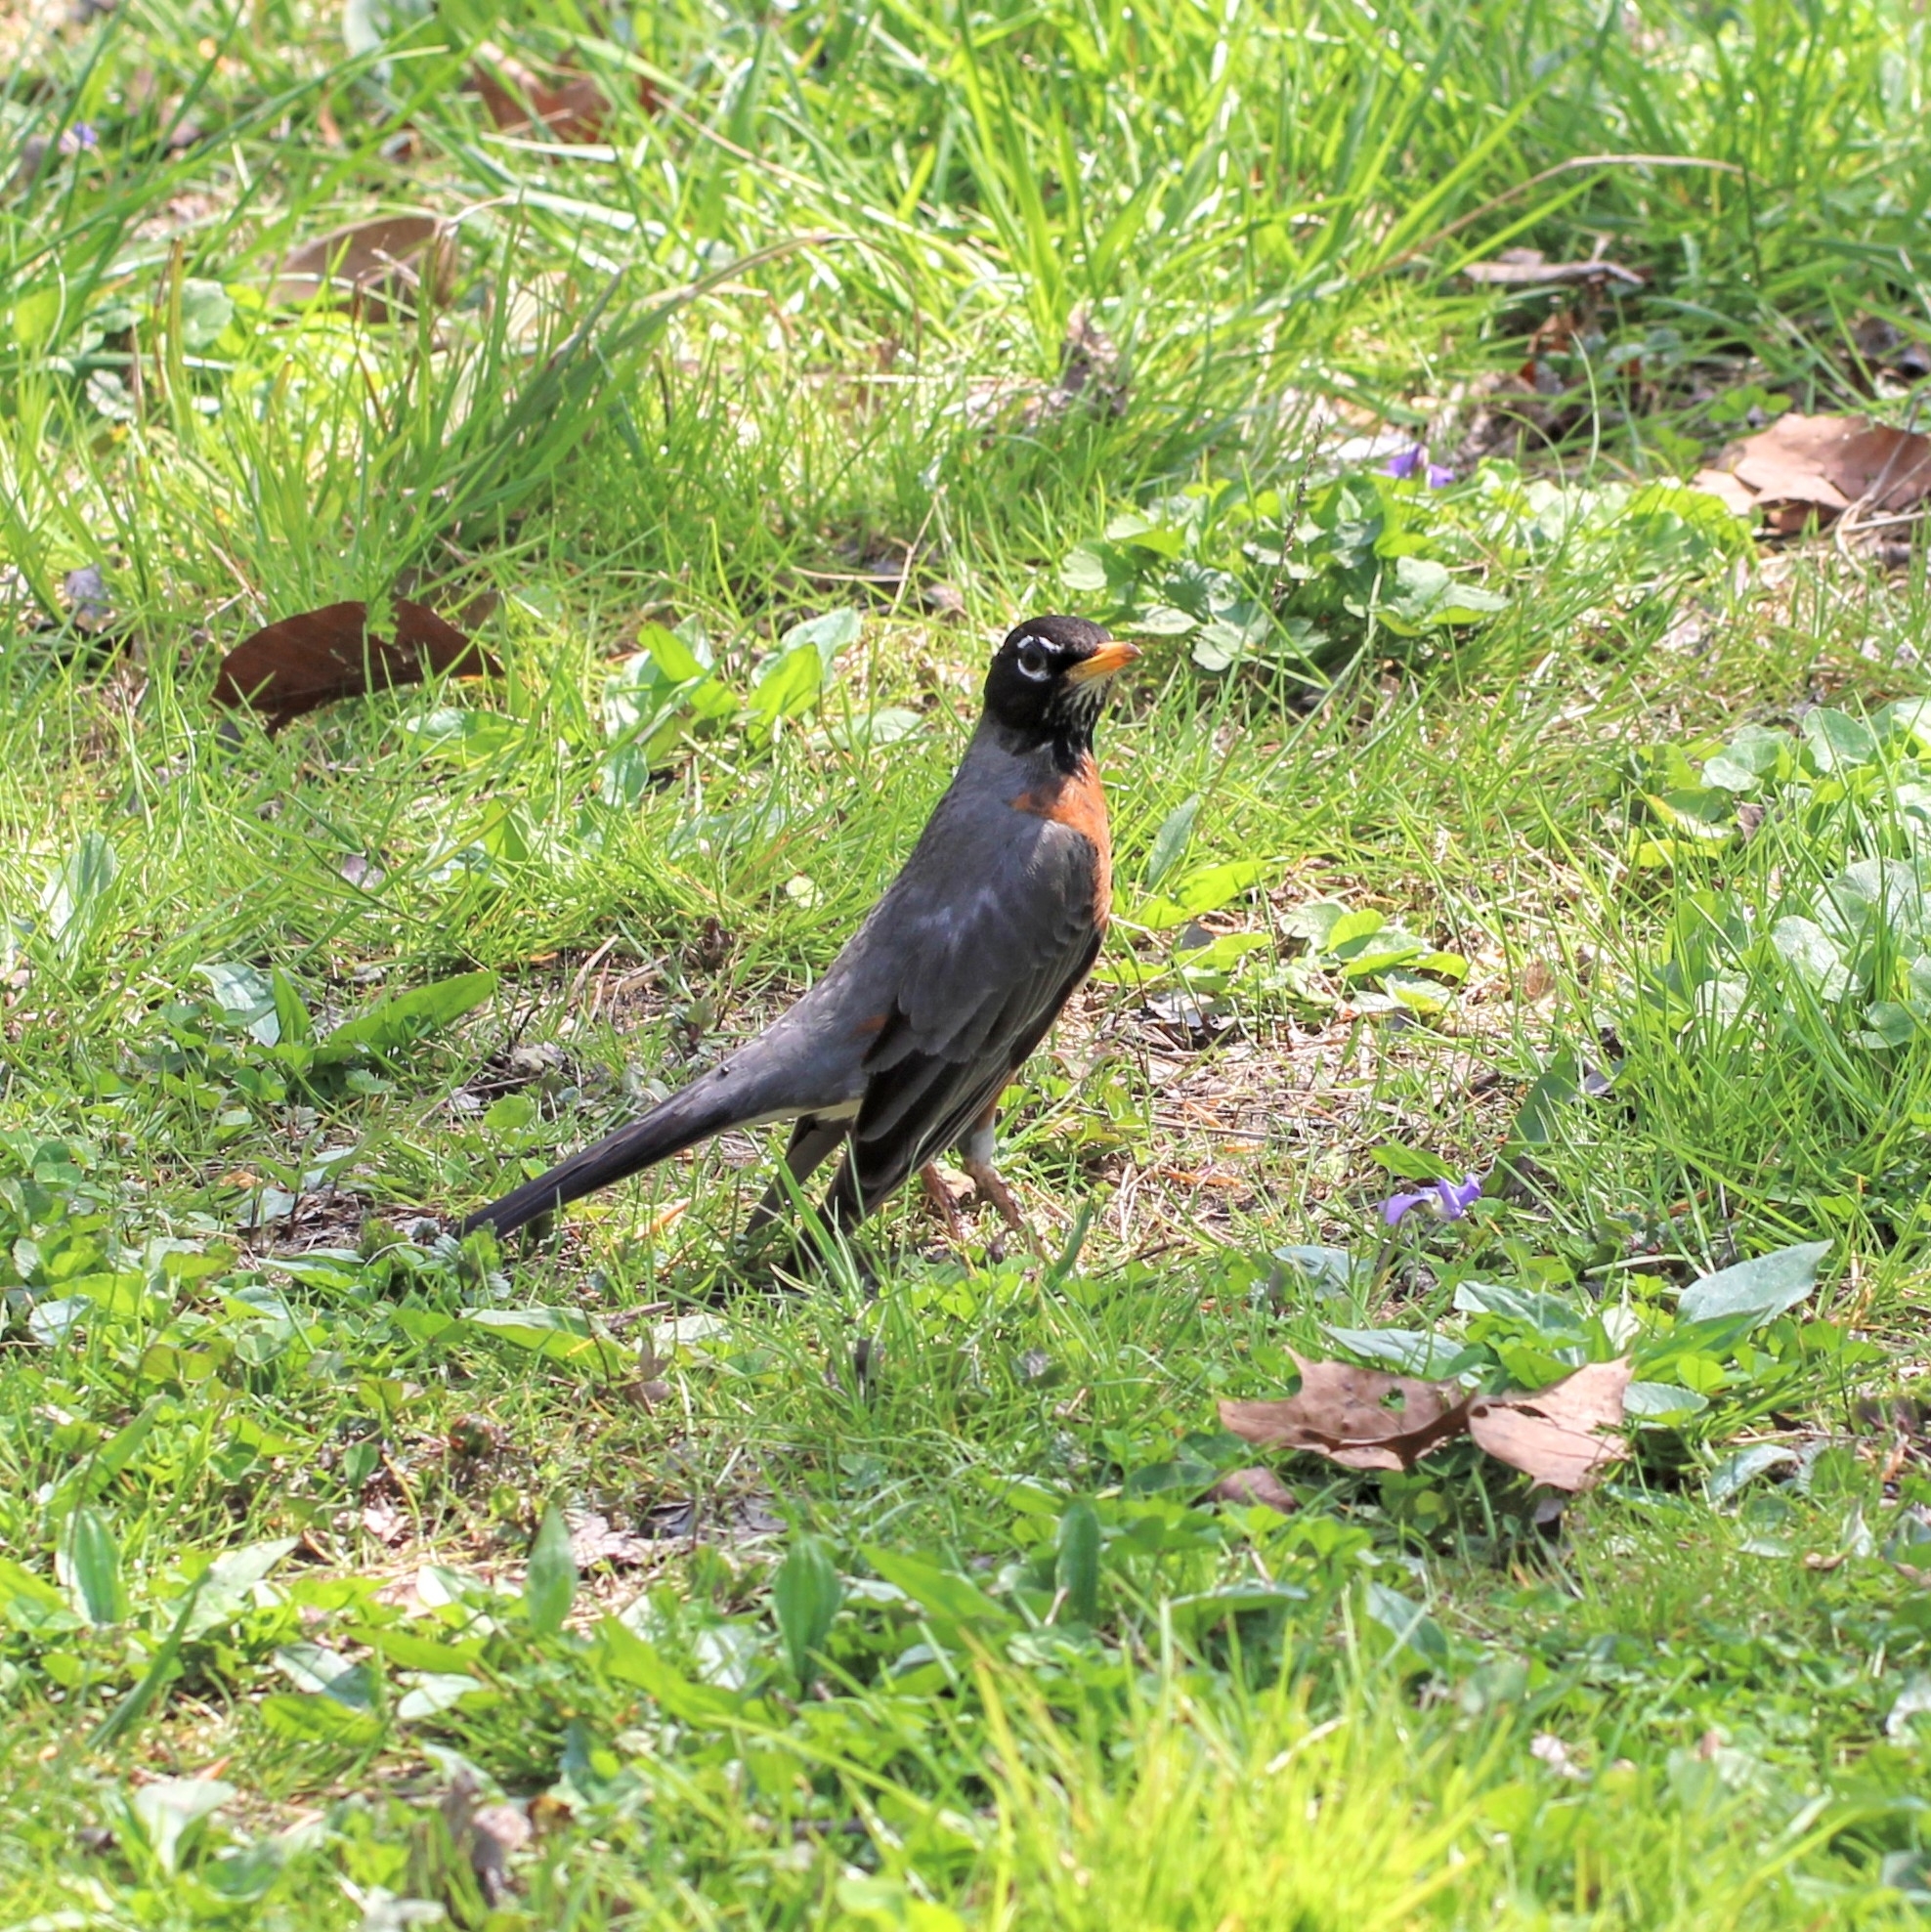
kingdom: Animalia
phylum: Chordata
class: Aves
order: Passeriformes
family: Turdidae
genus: Turdus
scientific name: Turdus migratorius
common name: American robin
